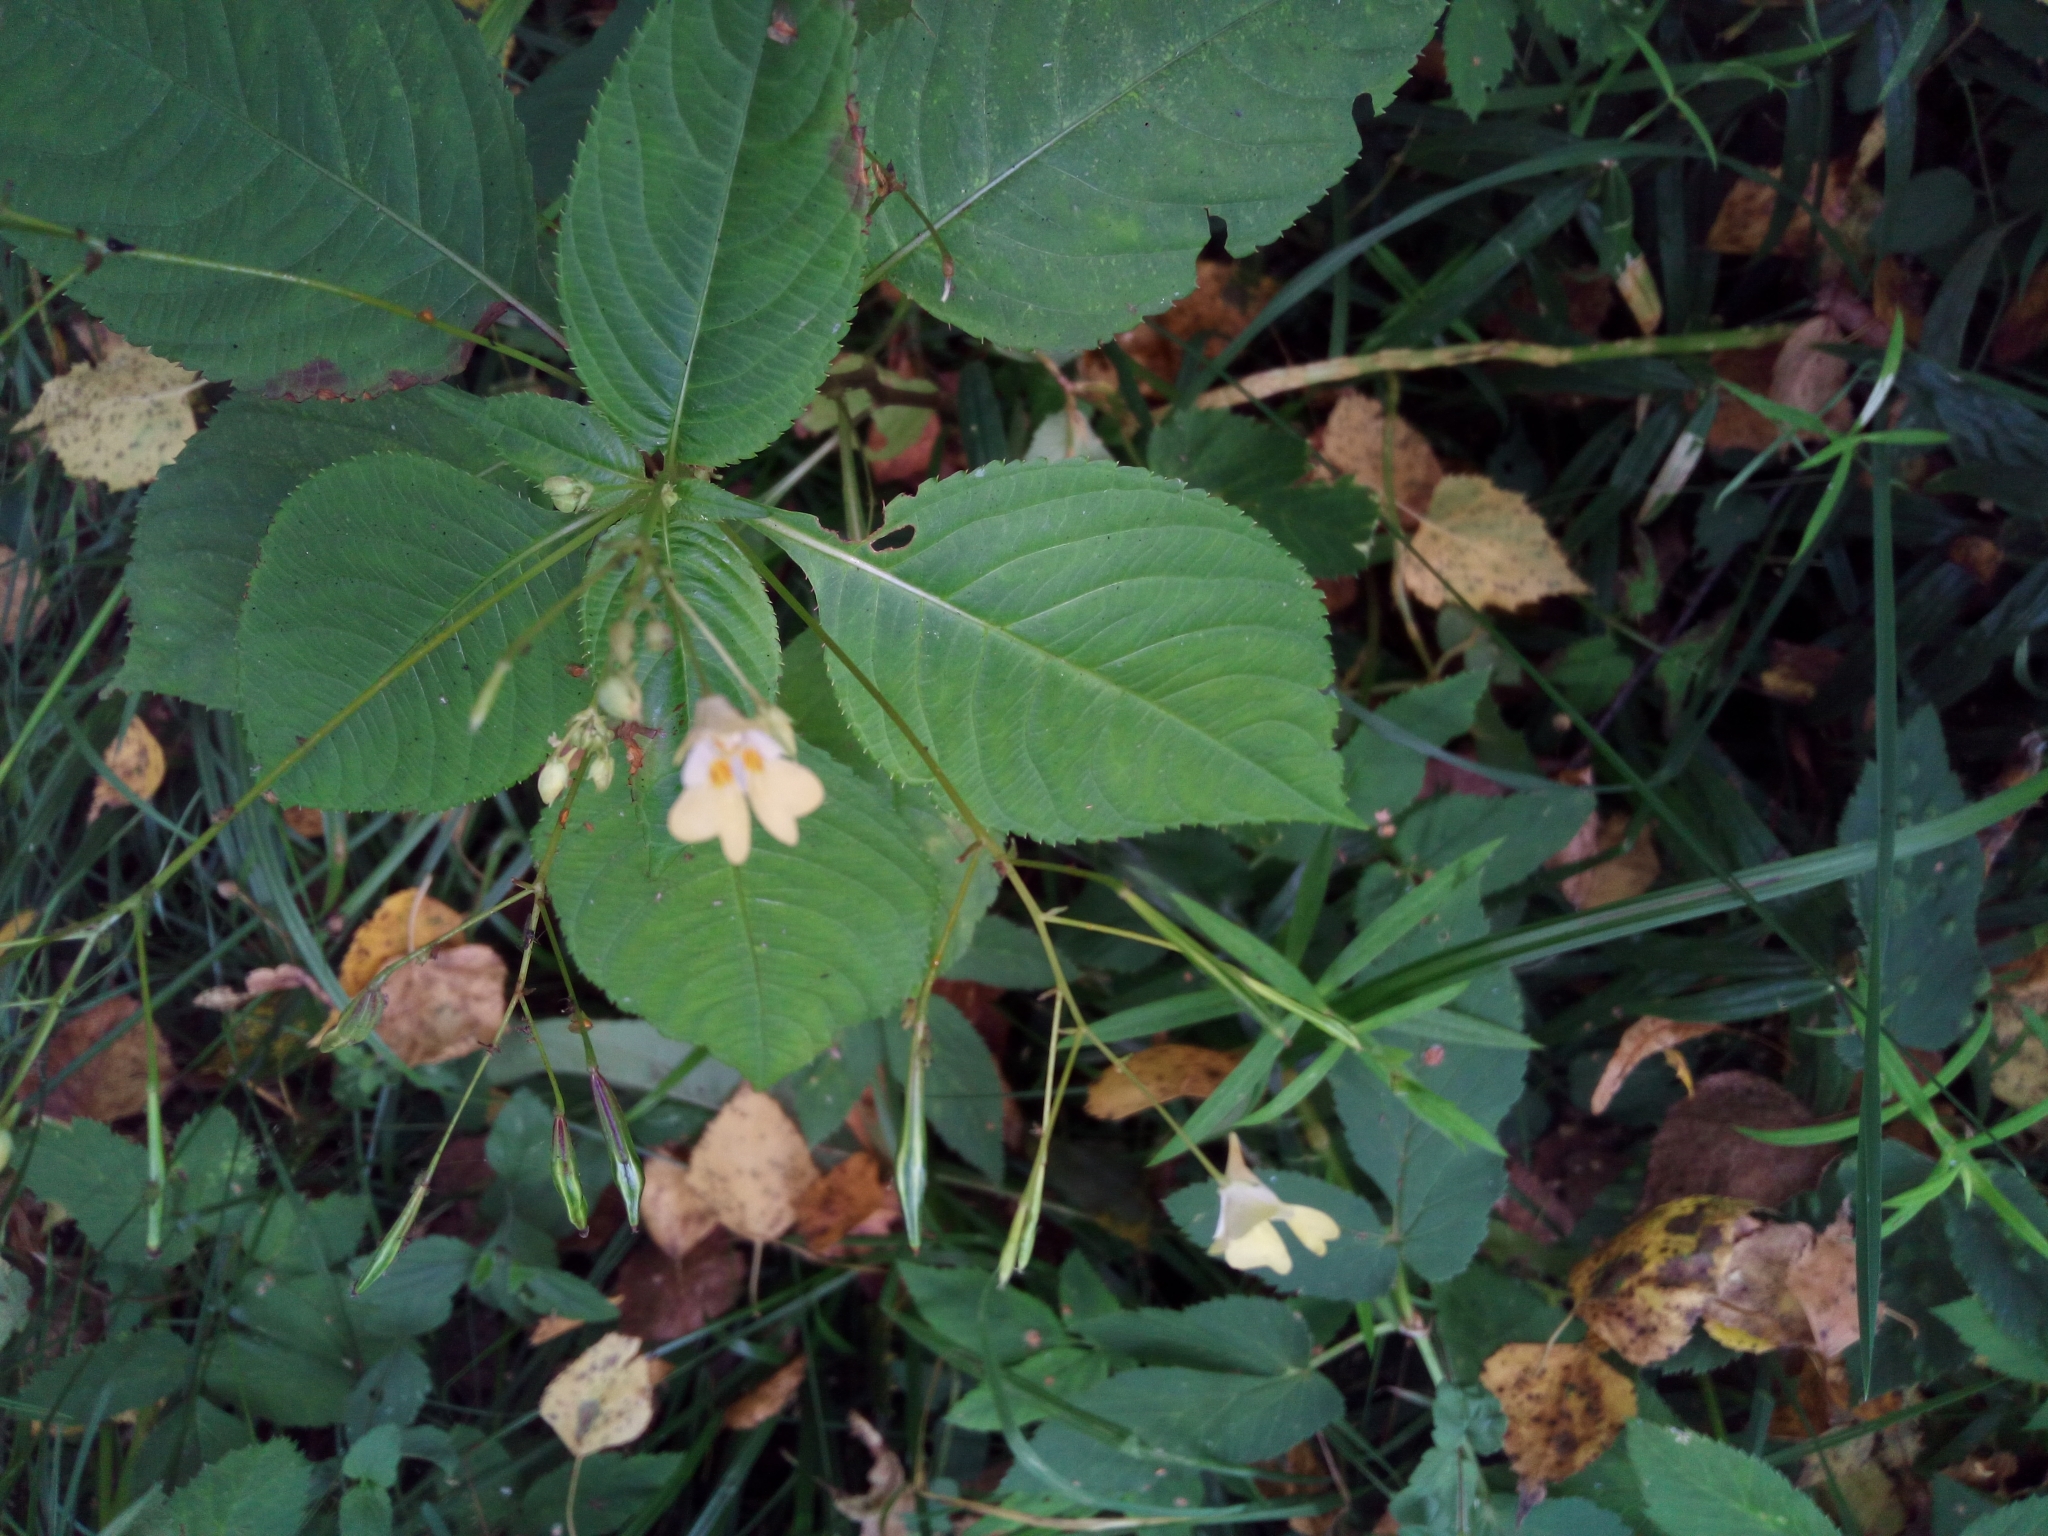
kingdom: Plantae
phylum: Tracheophyta
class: Magnoliopsida
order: Ericales
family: Balsaminaceae
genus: Impatiens
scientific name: Impatiens parviflora
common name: Small balsam
